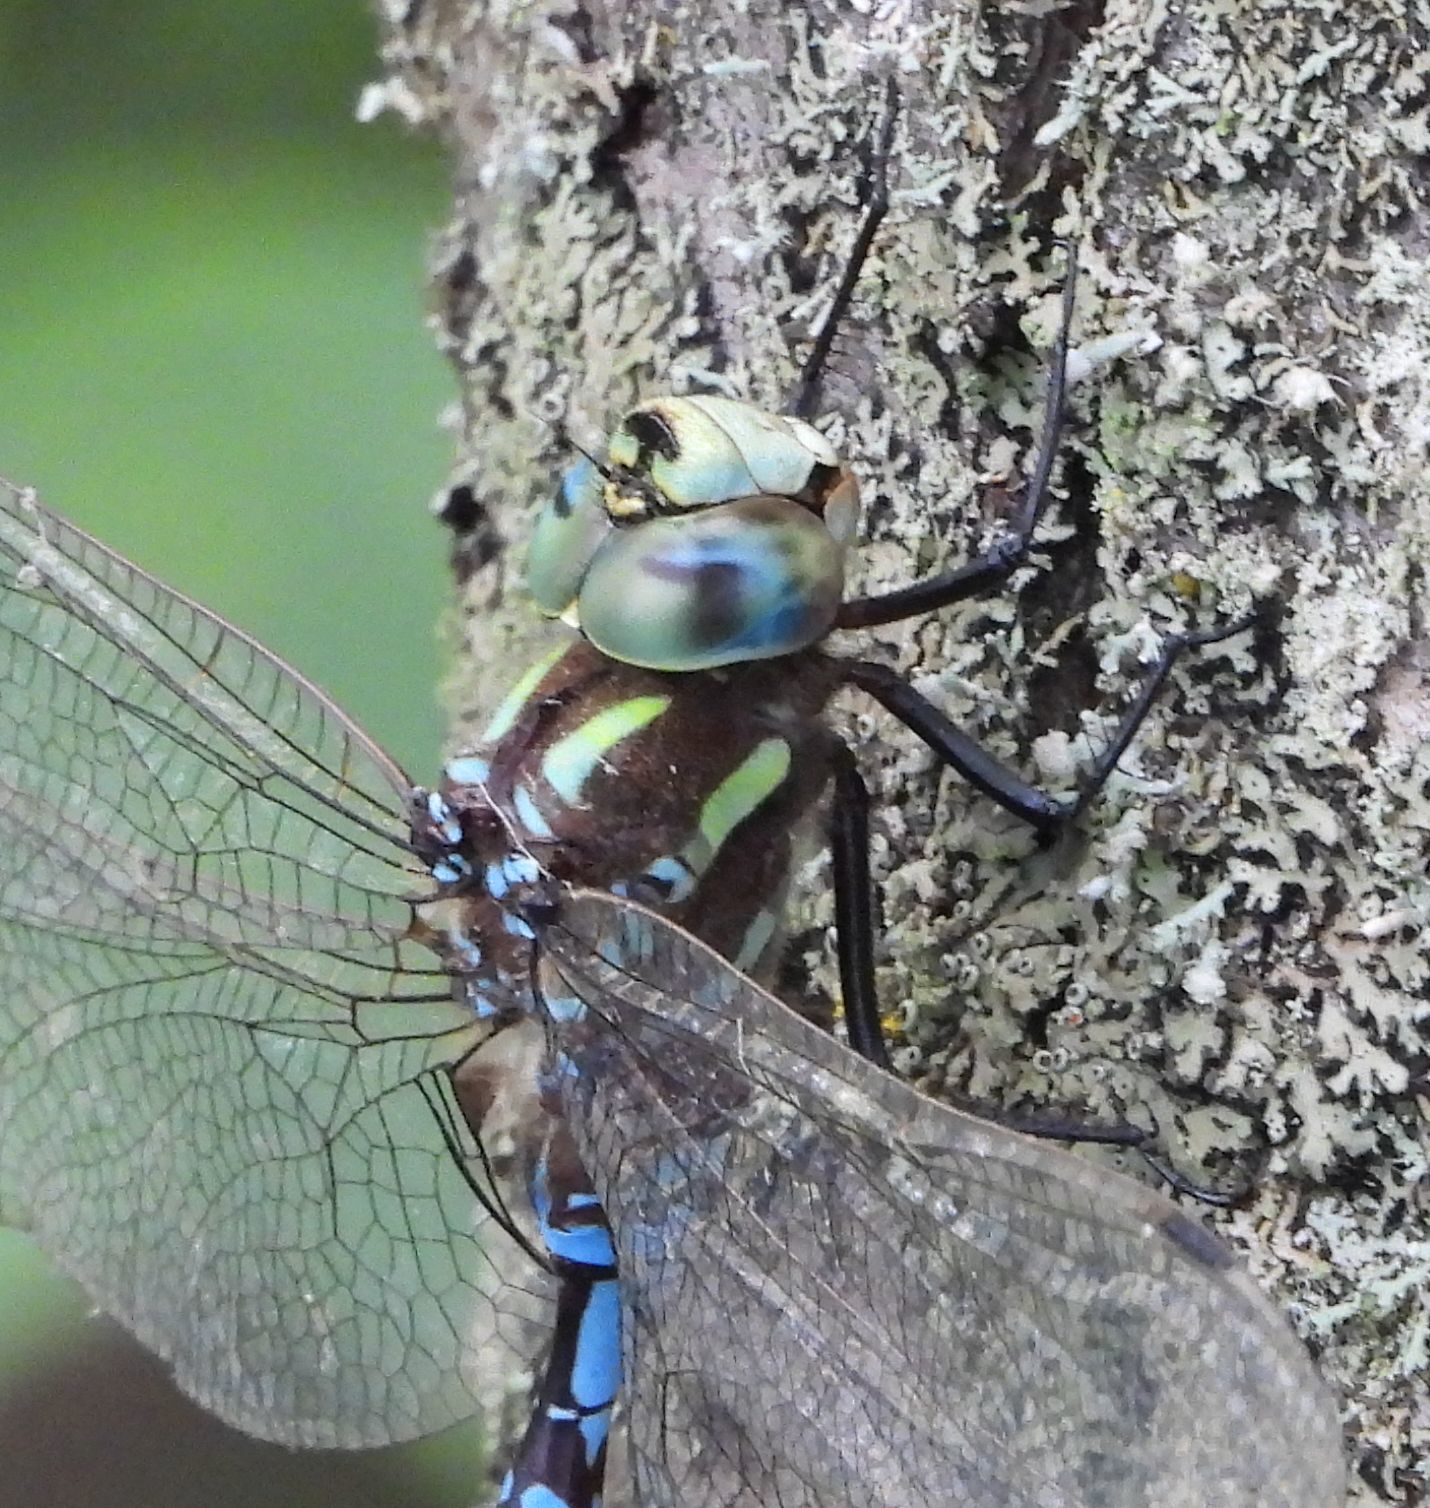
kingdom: Animalia
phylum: Arthropoda
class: Insecta
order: Odonata
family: Aeshnidae
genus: Aeshna
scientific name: Aeshna constricta
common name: Lance-tipped darner
